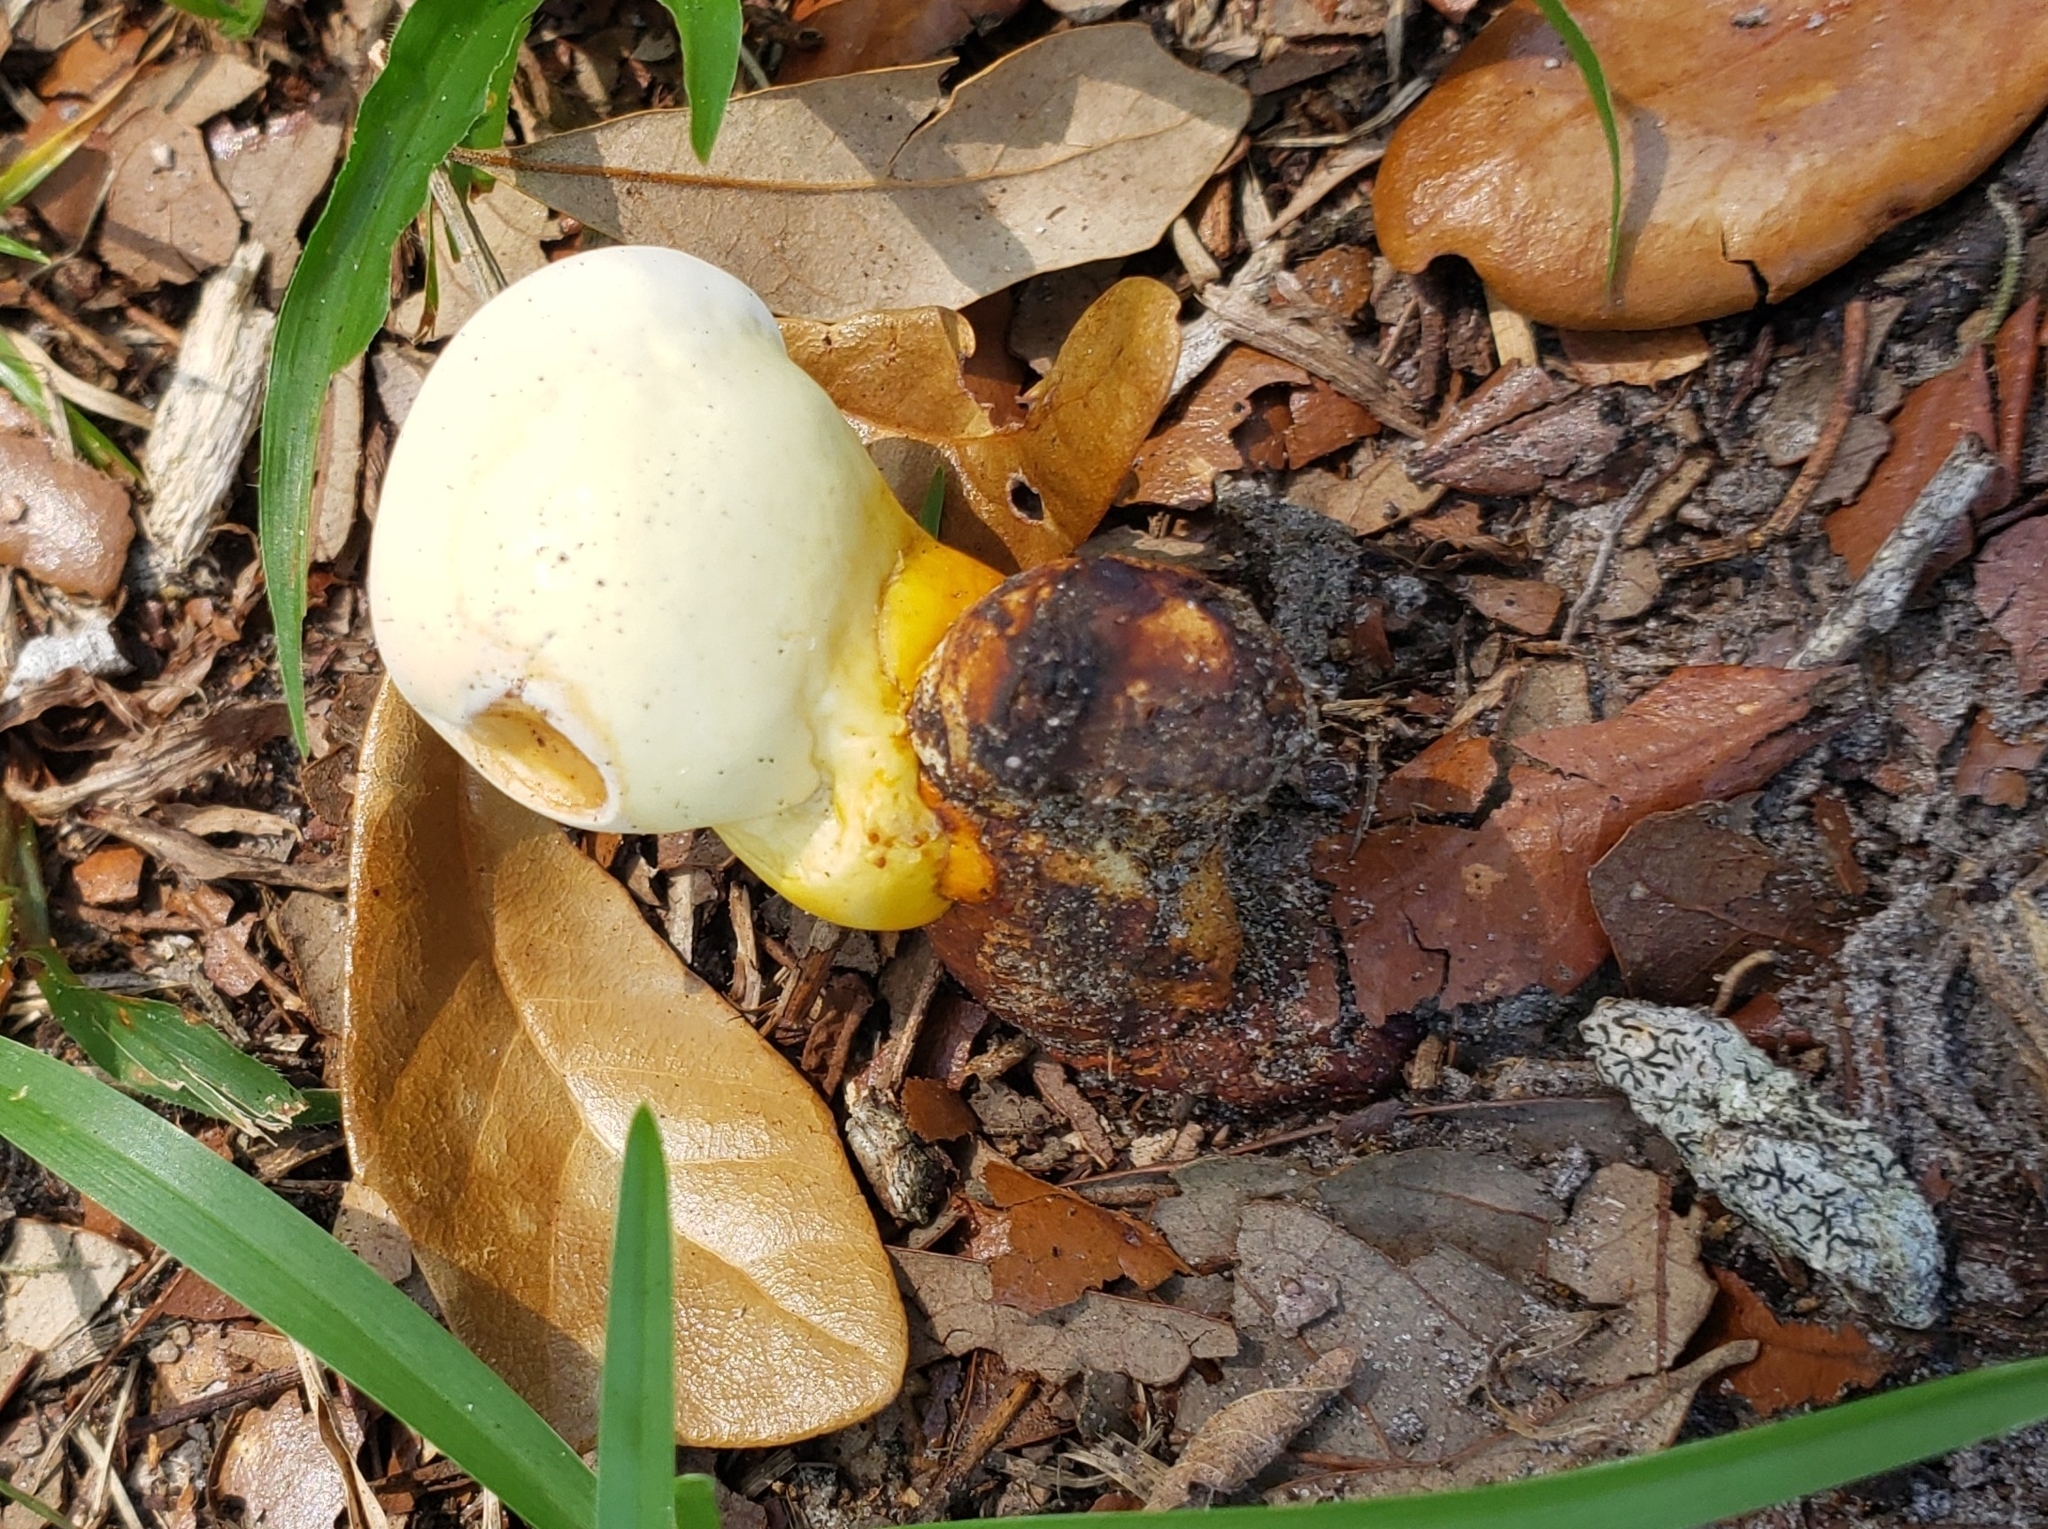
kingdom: Fungi
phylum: Basidiomycota
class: Agaricomycetes
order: Polyporales
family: Polyporaceae
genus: Ganoderma
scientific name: Ganoderma curtisii
